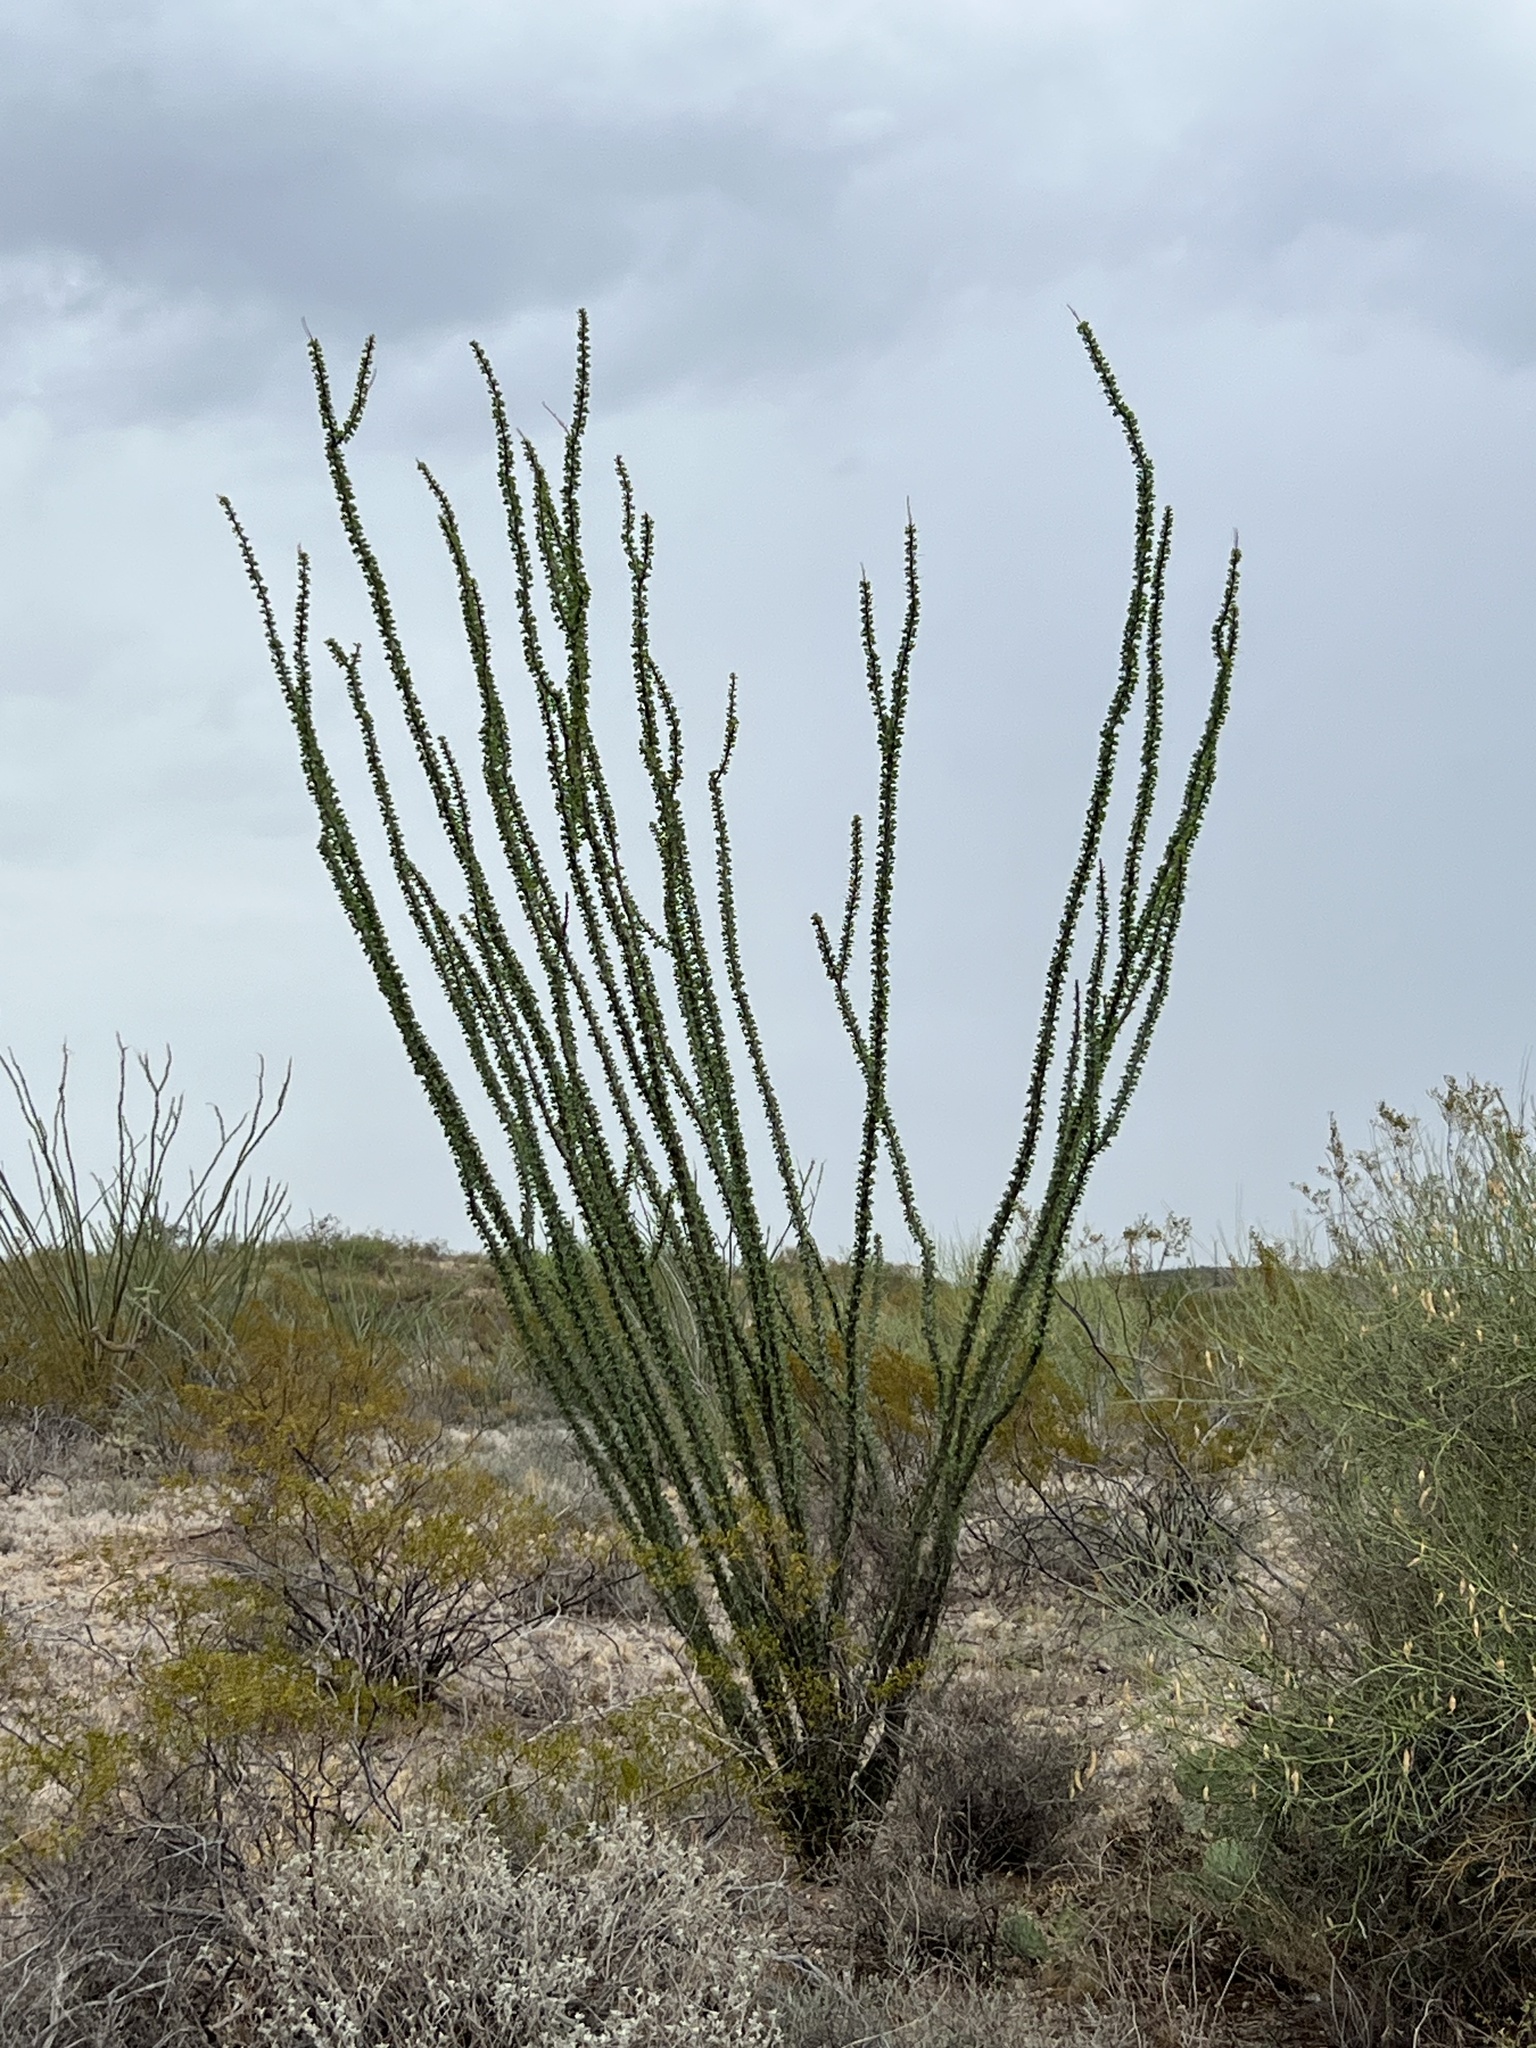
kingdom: Plantae
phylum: Tracheophyta
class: Magnoliopsida
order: Ericales
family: Fouquieriaceae
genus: Fouquieria
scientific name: Fouquieria splendens
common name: Vine-cactus
